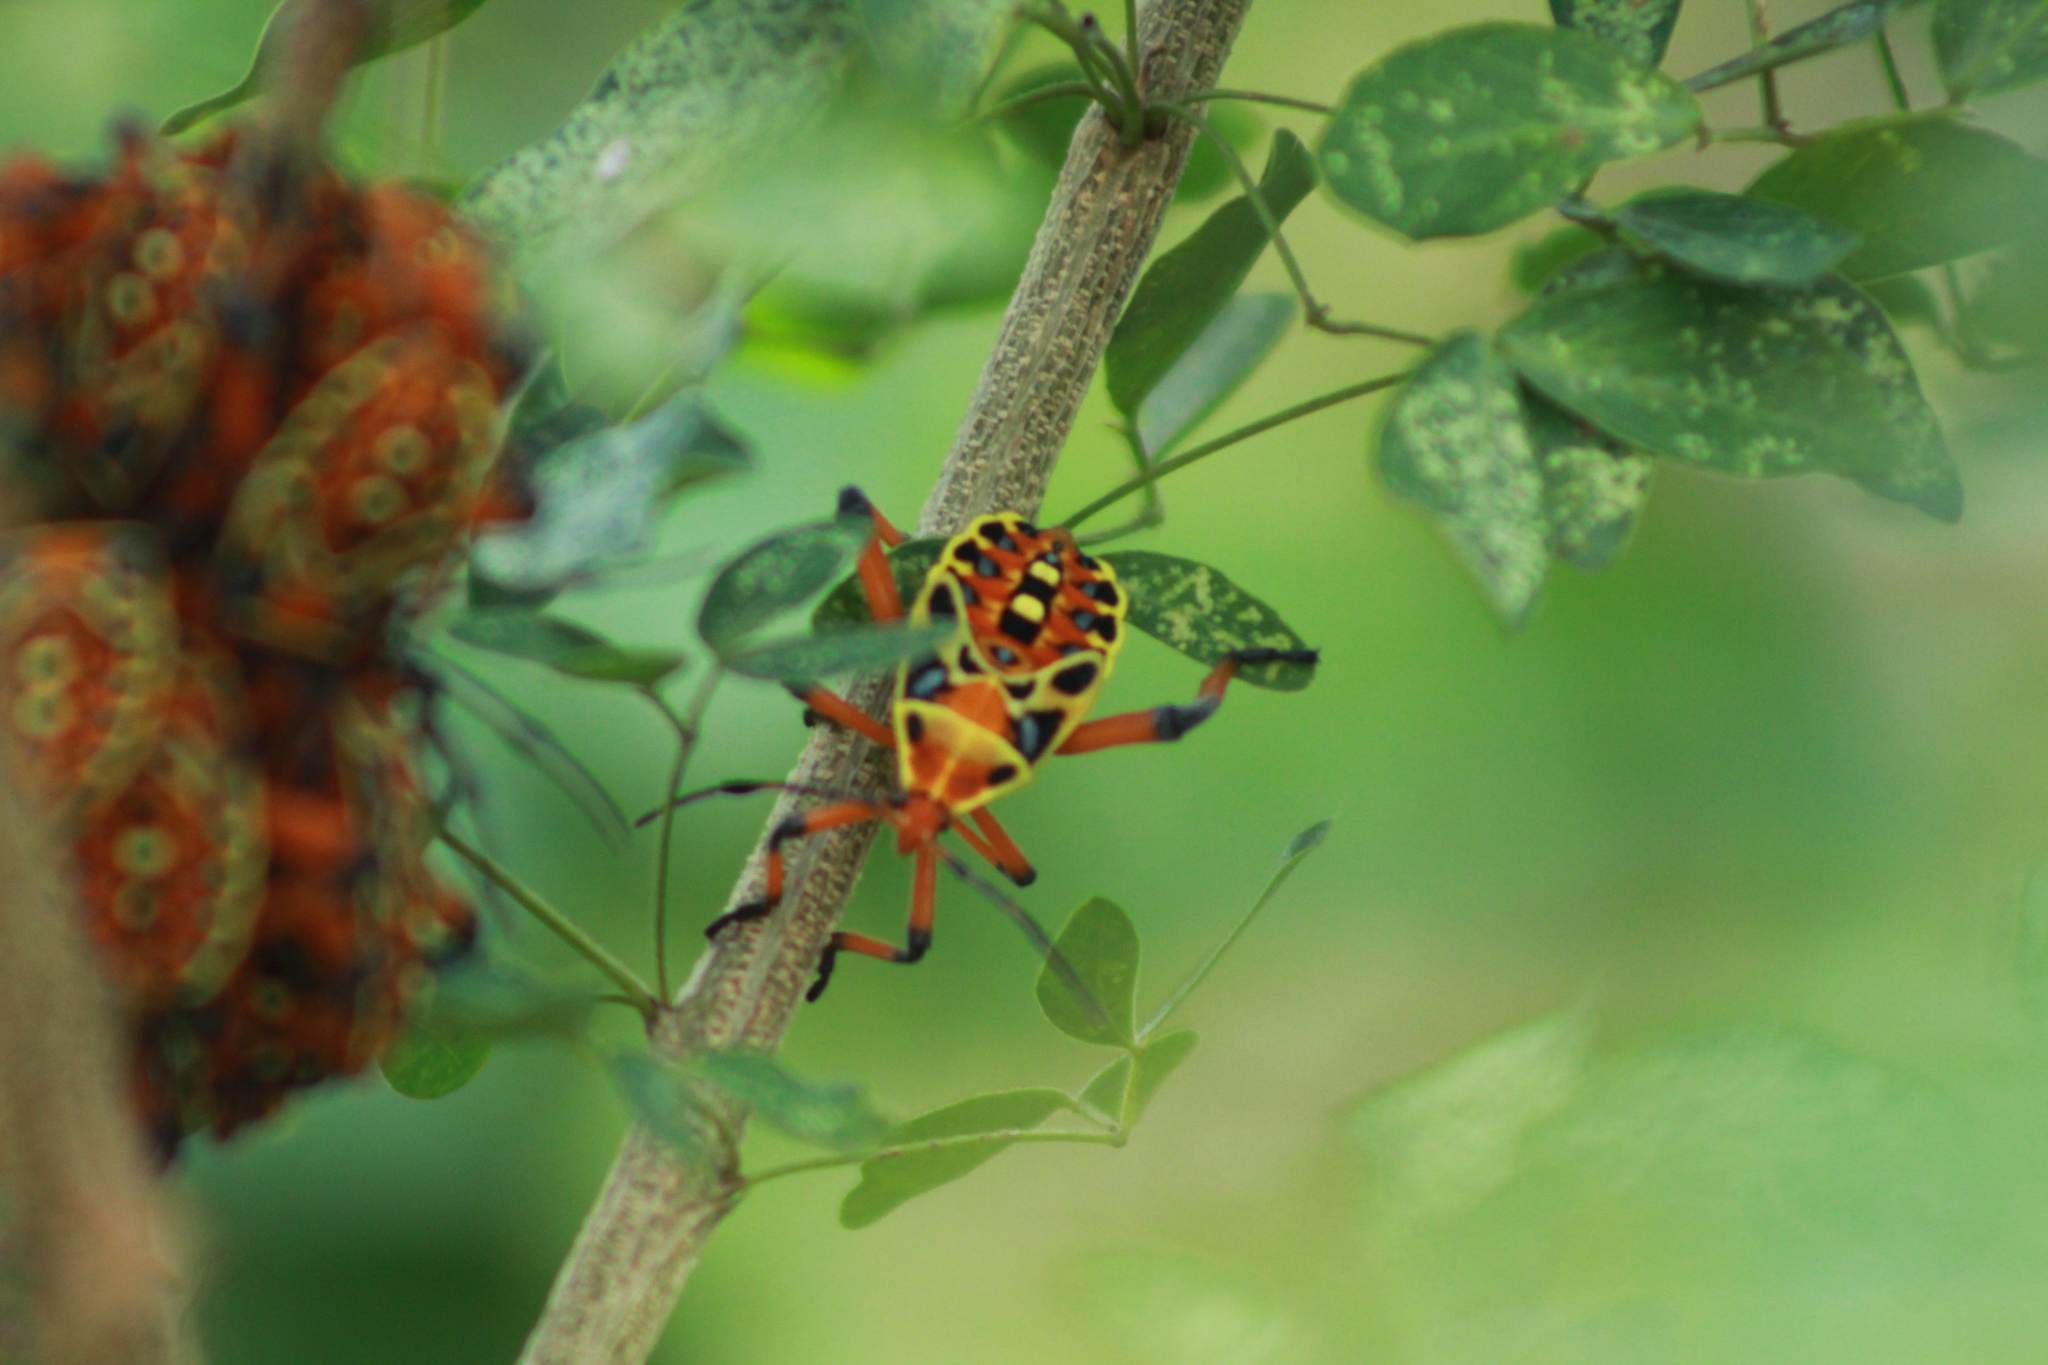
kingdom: Animalia
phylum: Arthropoda
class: Insecta
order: Hemiptera
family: Coreidae
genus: Pachylis
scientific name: Pachylis nervosus
